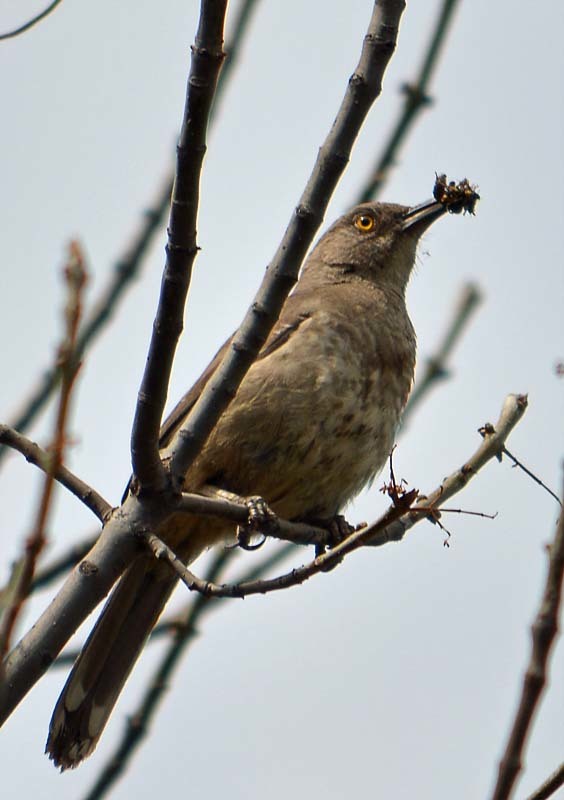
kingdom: Animalia
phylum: Chordata
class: Aves
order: Passeriformes
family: Mimidae
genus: Toxostoma
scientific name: Toxostoma curvirostre
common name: Curve-billed thrasher
